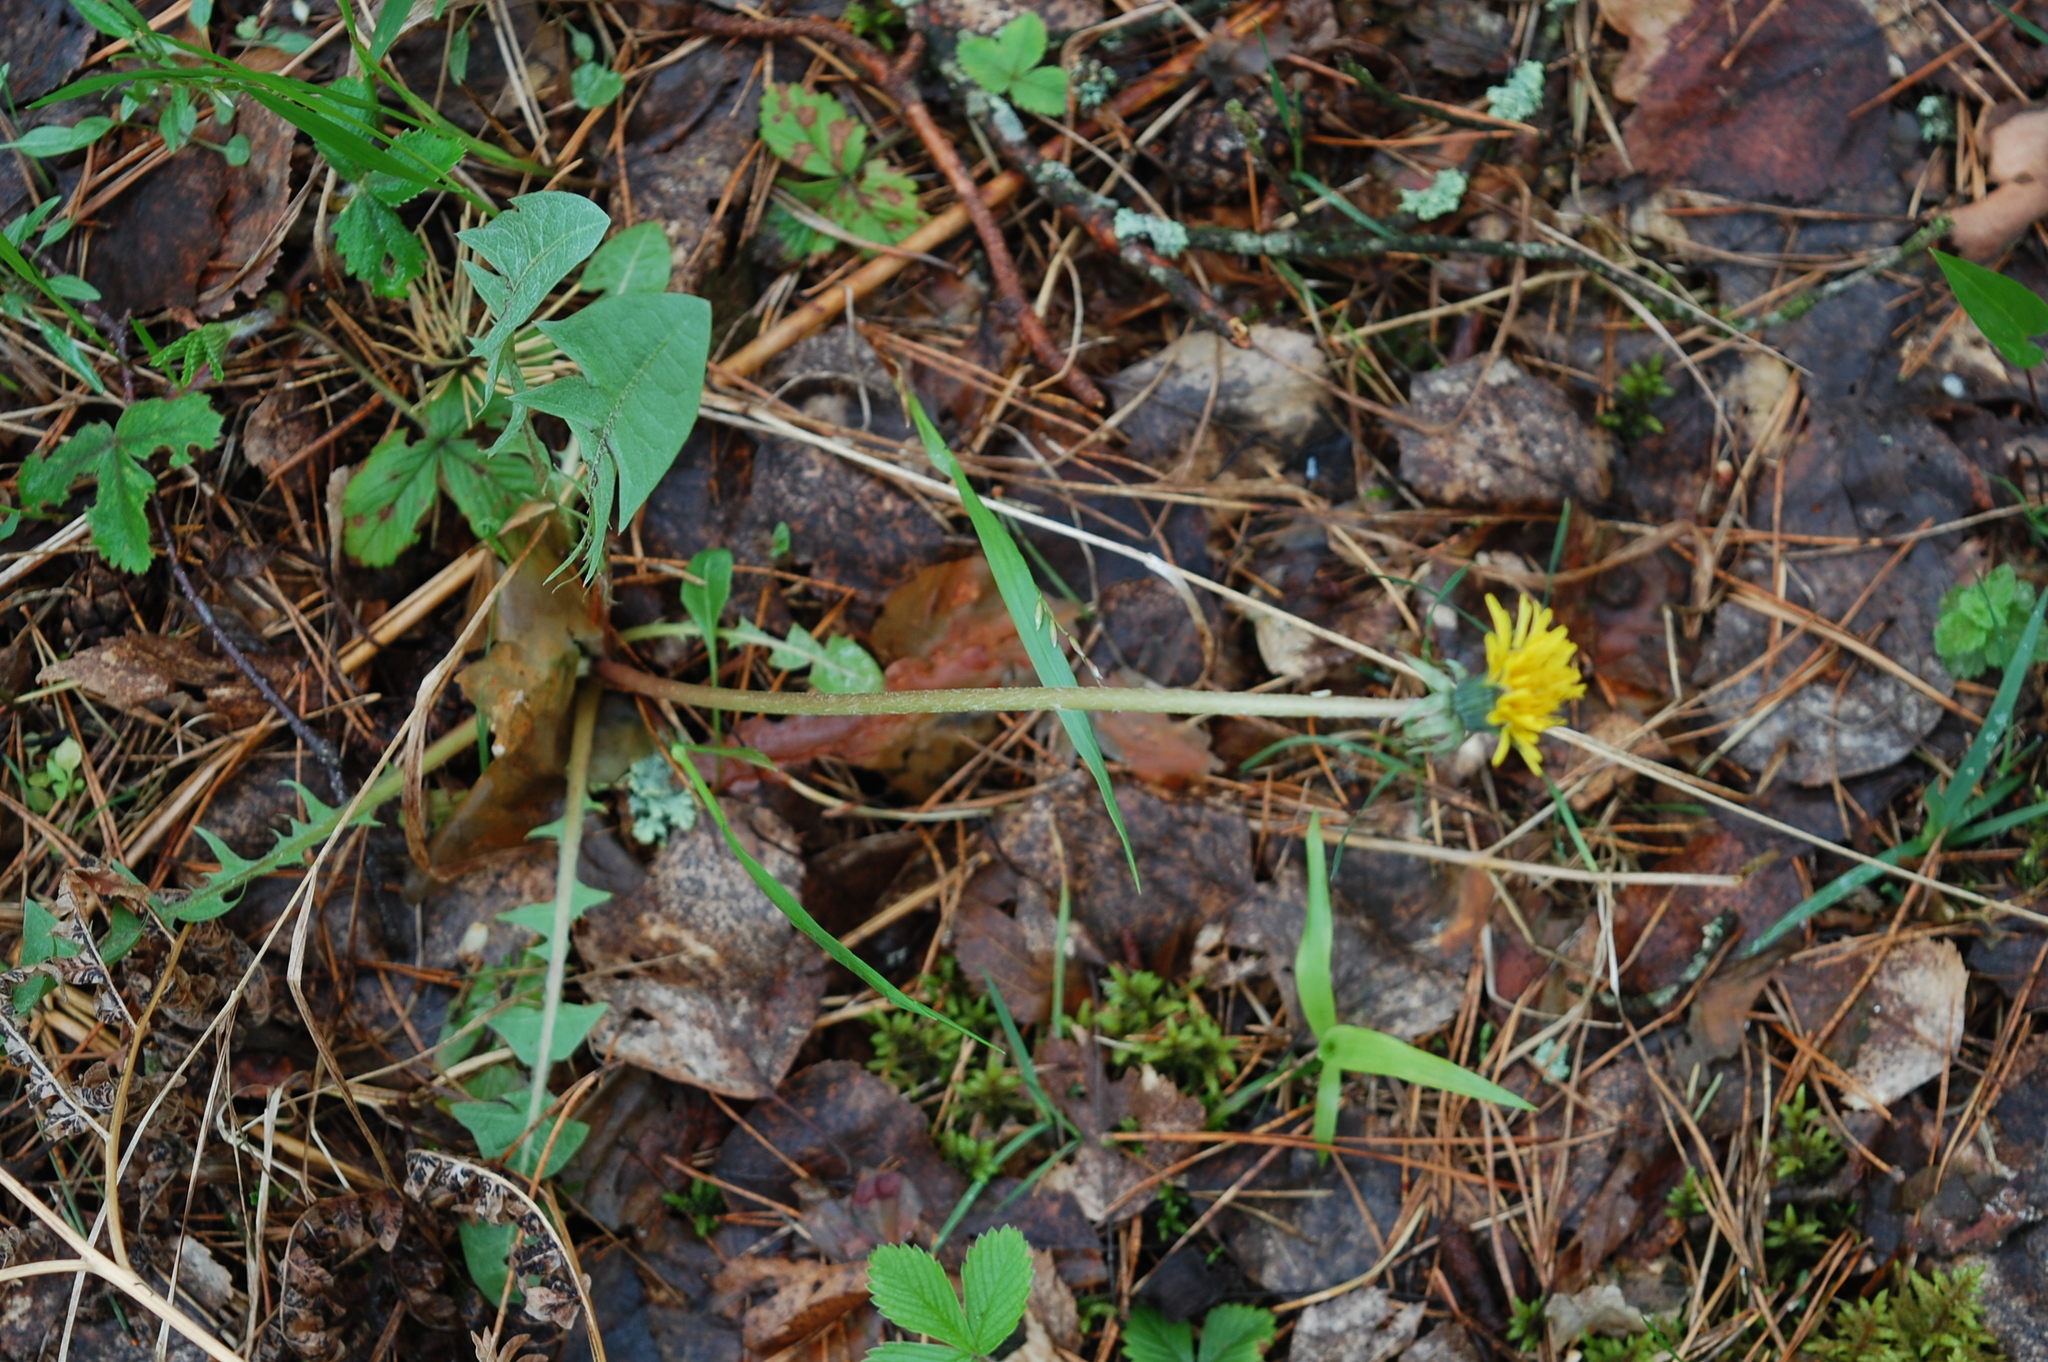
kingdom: Plantae
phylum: Tracheophyta
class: Magnoliopsida
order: Asterales
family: Asteraceae
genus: Taraxacum
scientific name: Taraxacum officinale
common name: Common dandelion
